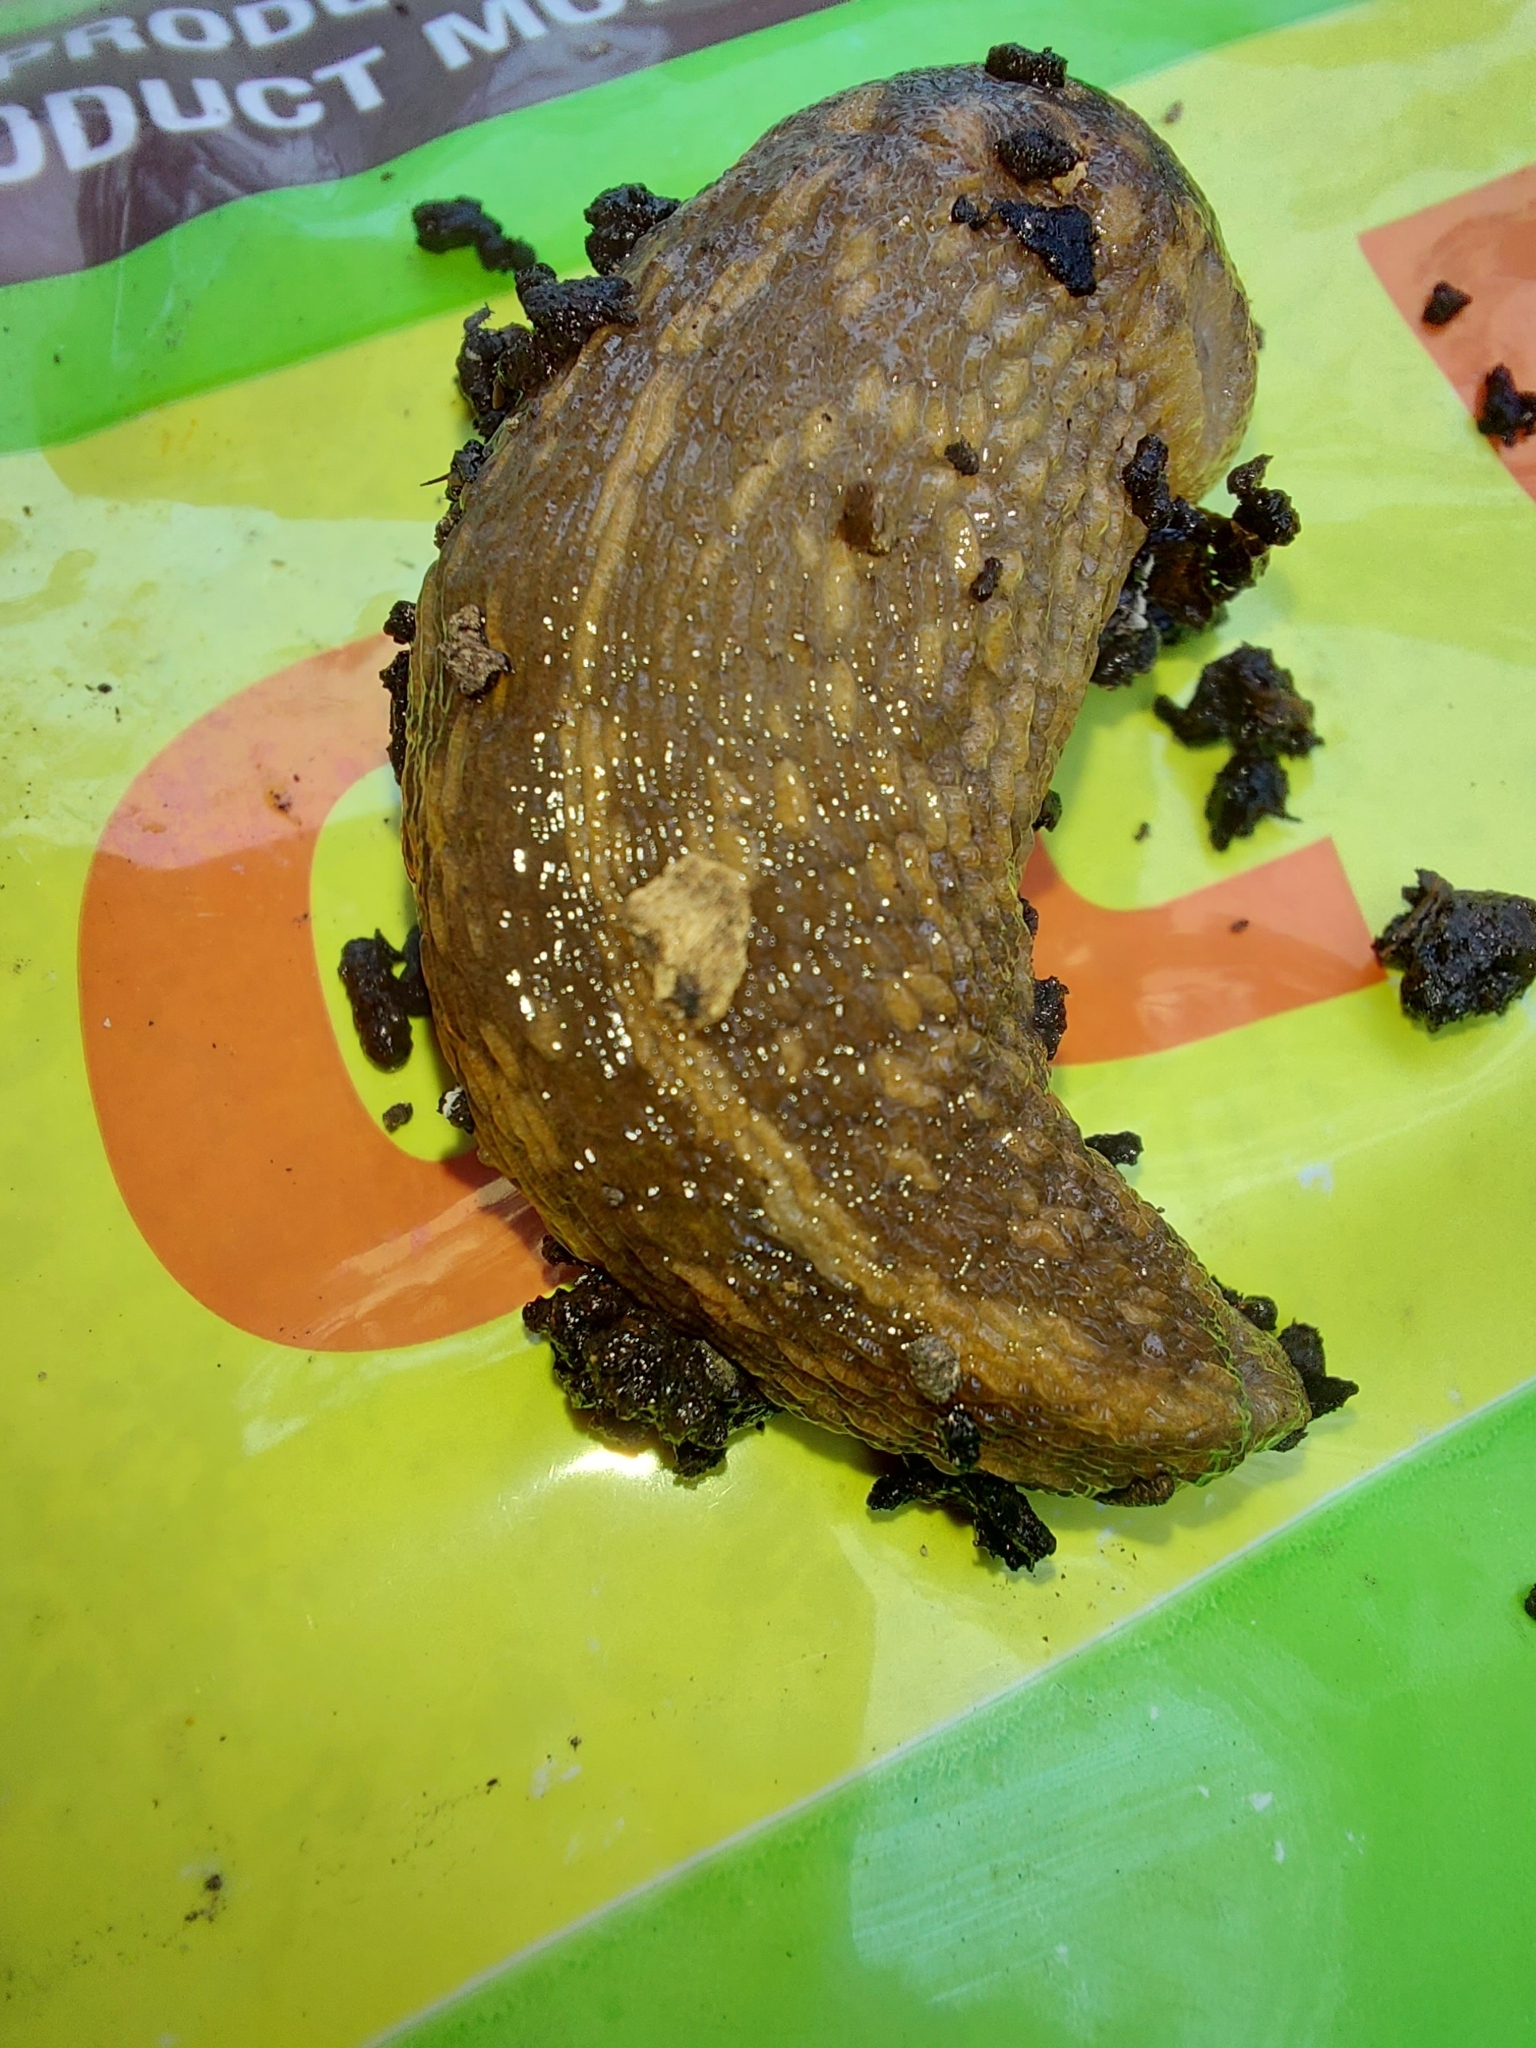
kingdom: Animalia
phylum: Mollusca
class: Gastropoda
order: Stylommatophora
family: Limacidae
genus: Limacus
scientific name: Limacus flavus
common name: Yellow gardenslug
